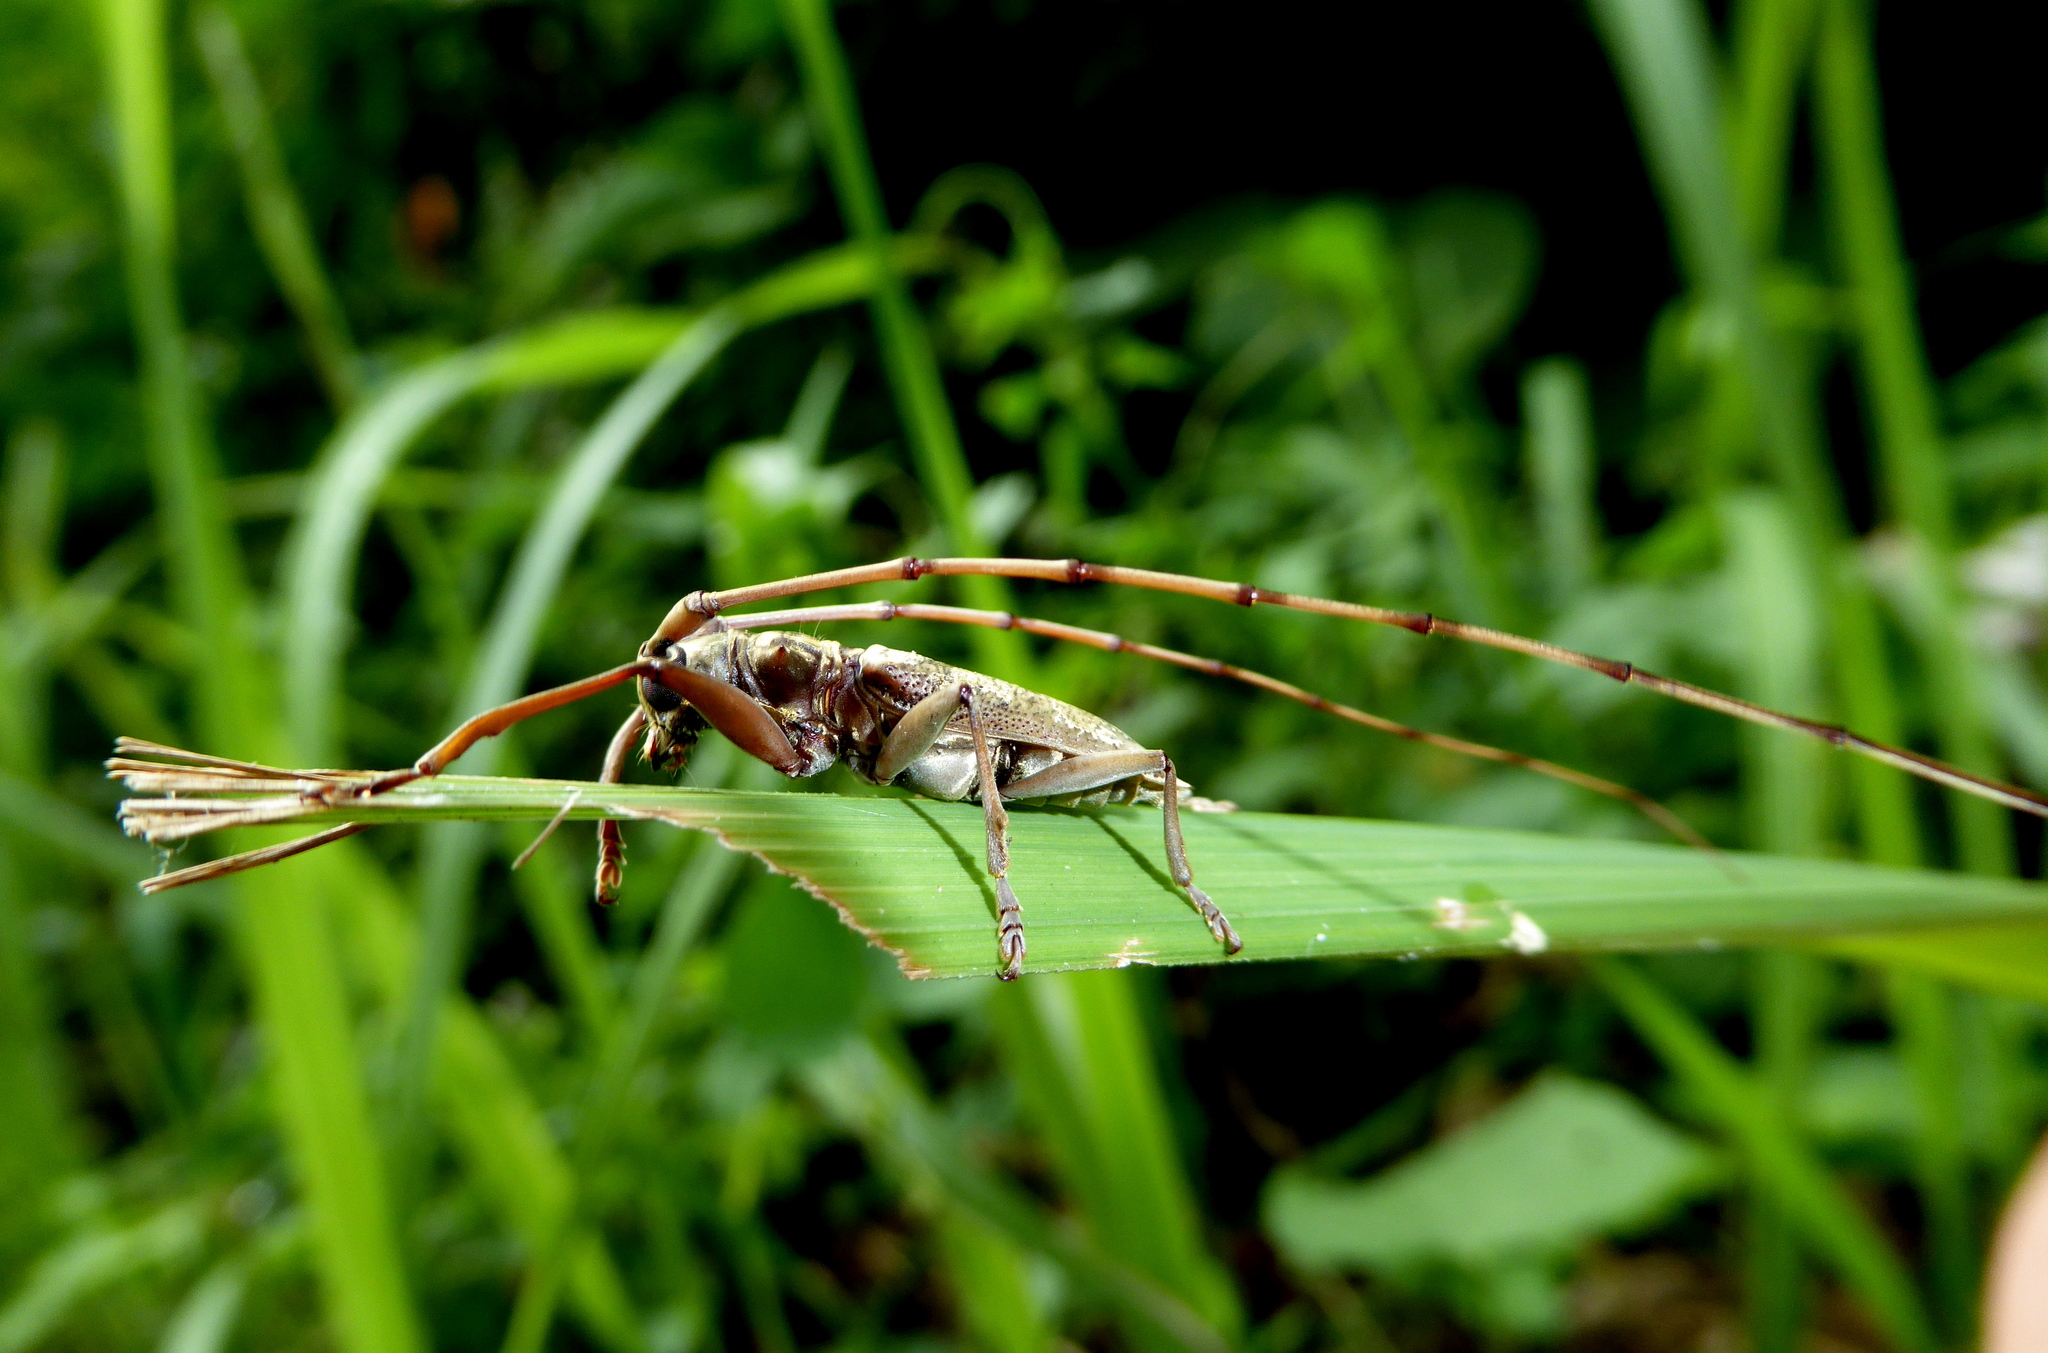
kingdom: Animalia
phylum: Arthropoda
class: Insecta
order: Coleoptera
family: Cerambycidae
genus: Acalolepta
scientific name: Acalolepta antenor
